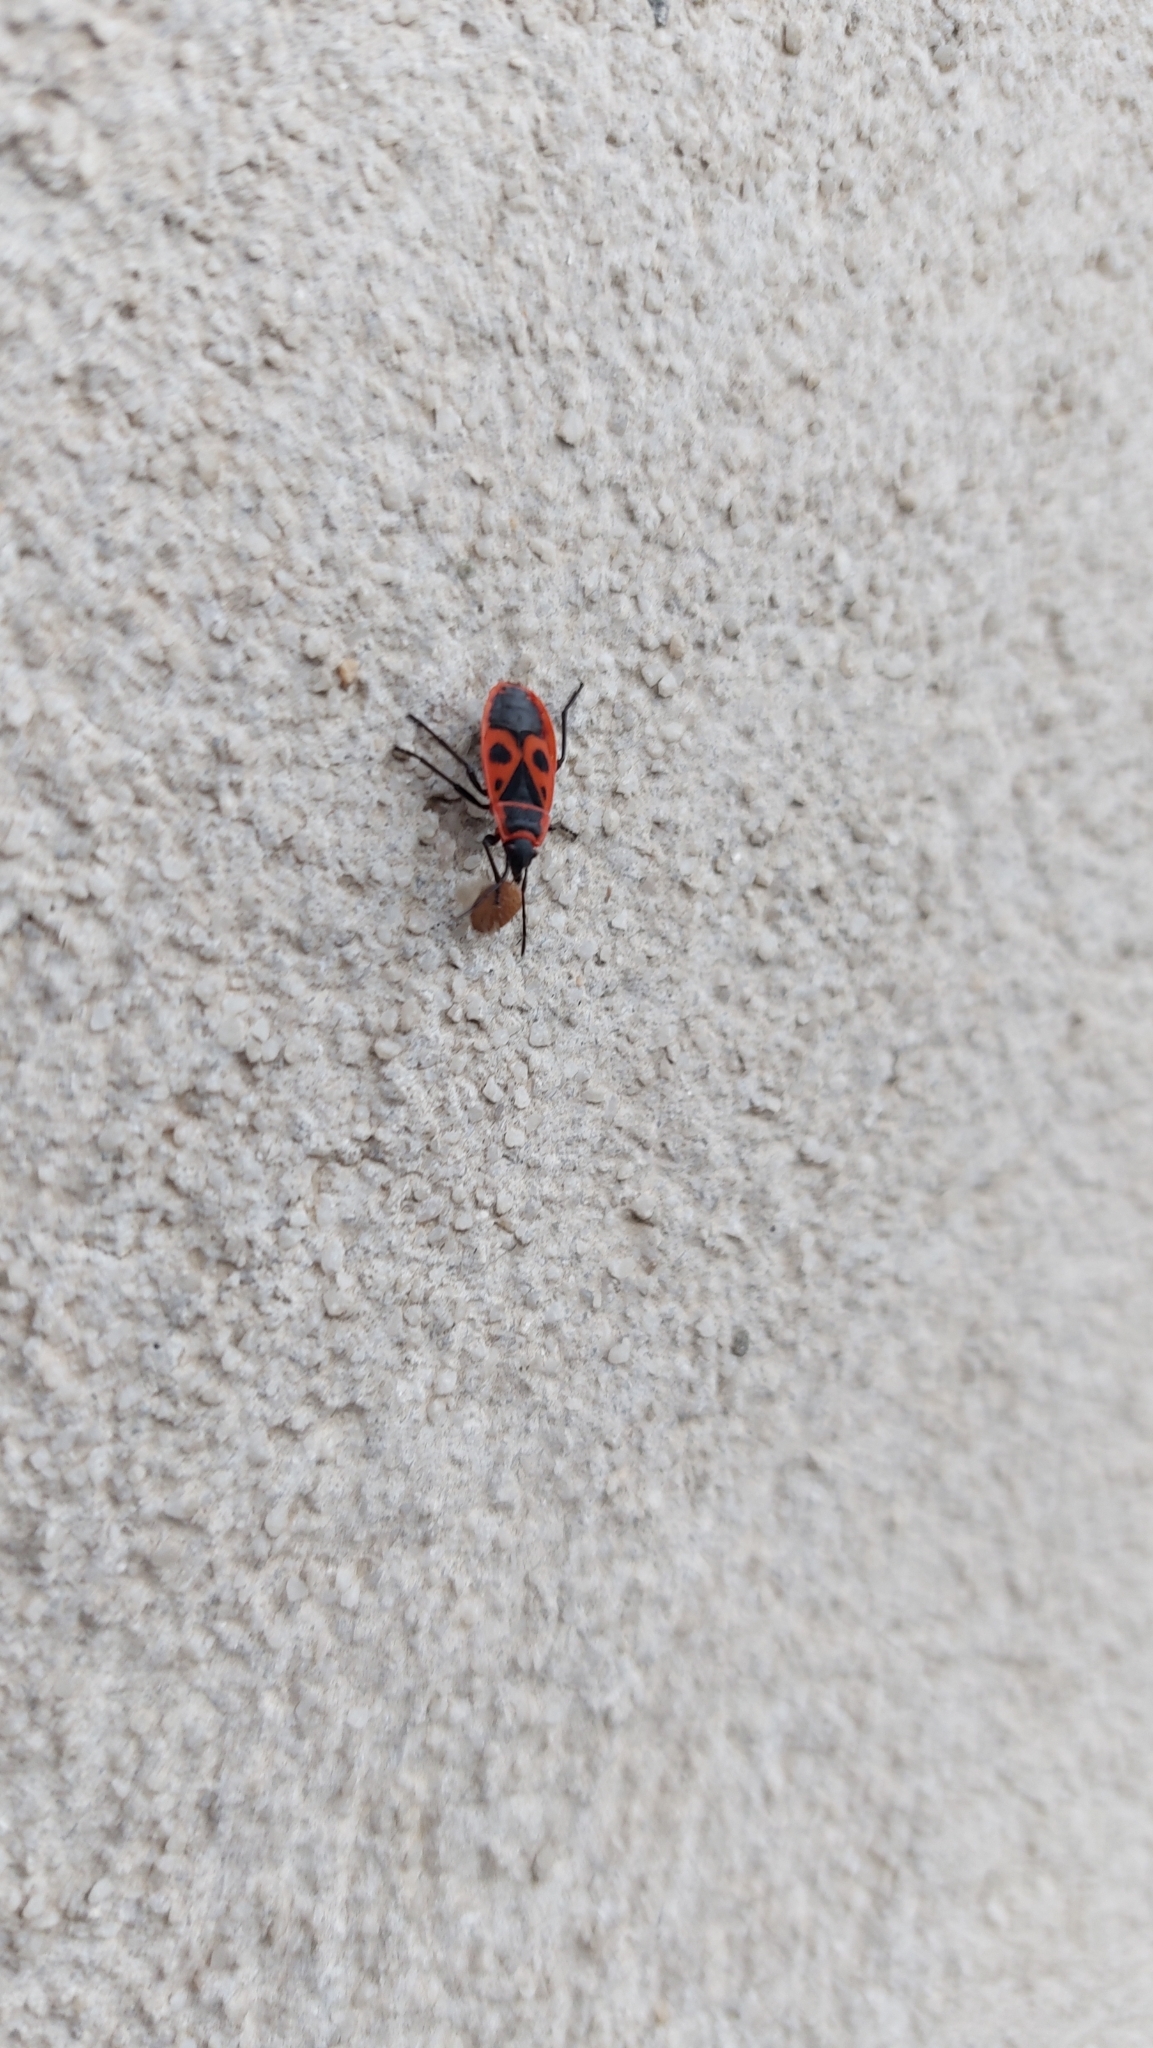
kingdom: Animalia
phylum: Arthropoda
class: Insecta
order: Hemiptera
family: Pyrrhocoridae
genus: Pyrrhocoris
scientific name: Pyrrhocoris apterus
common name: Firebug
